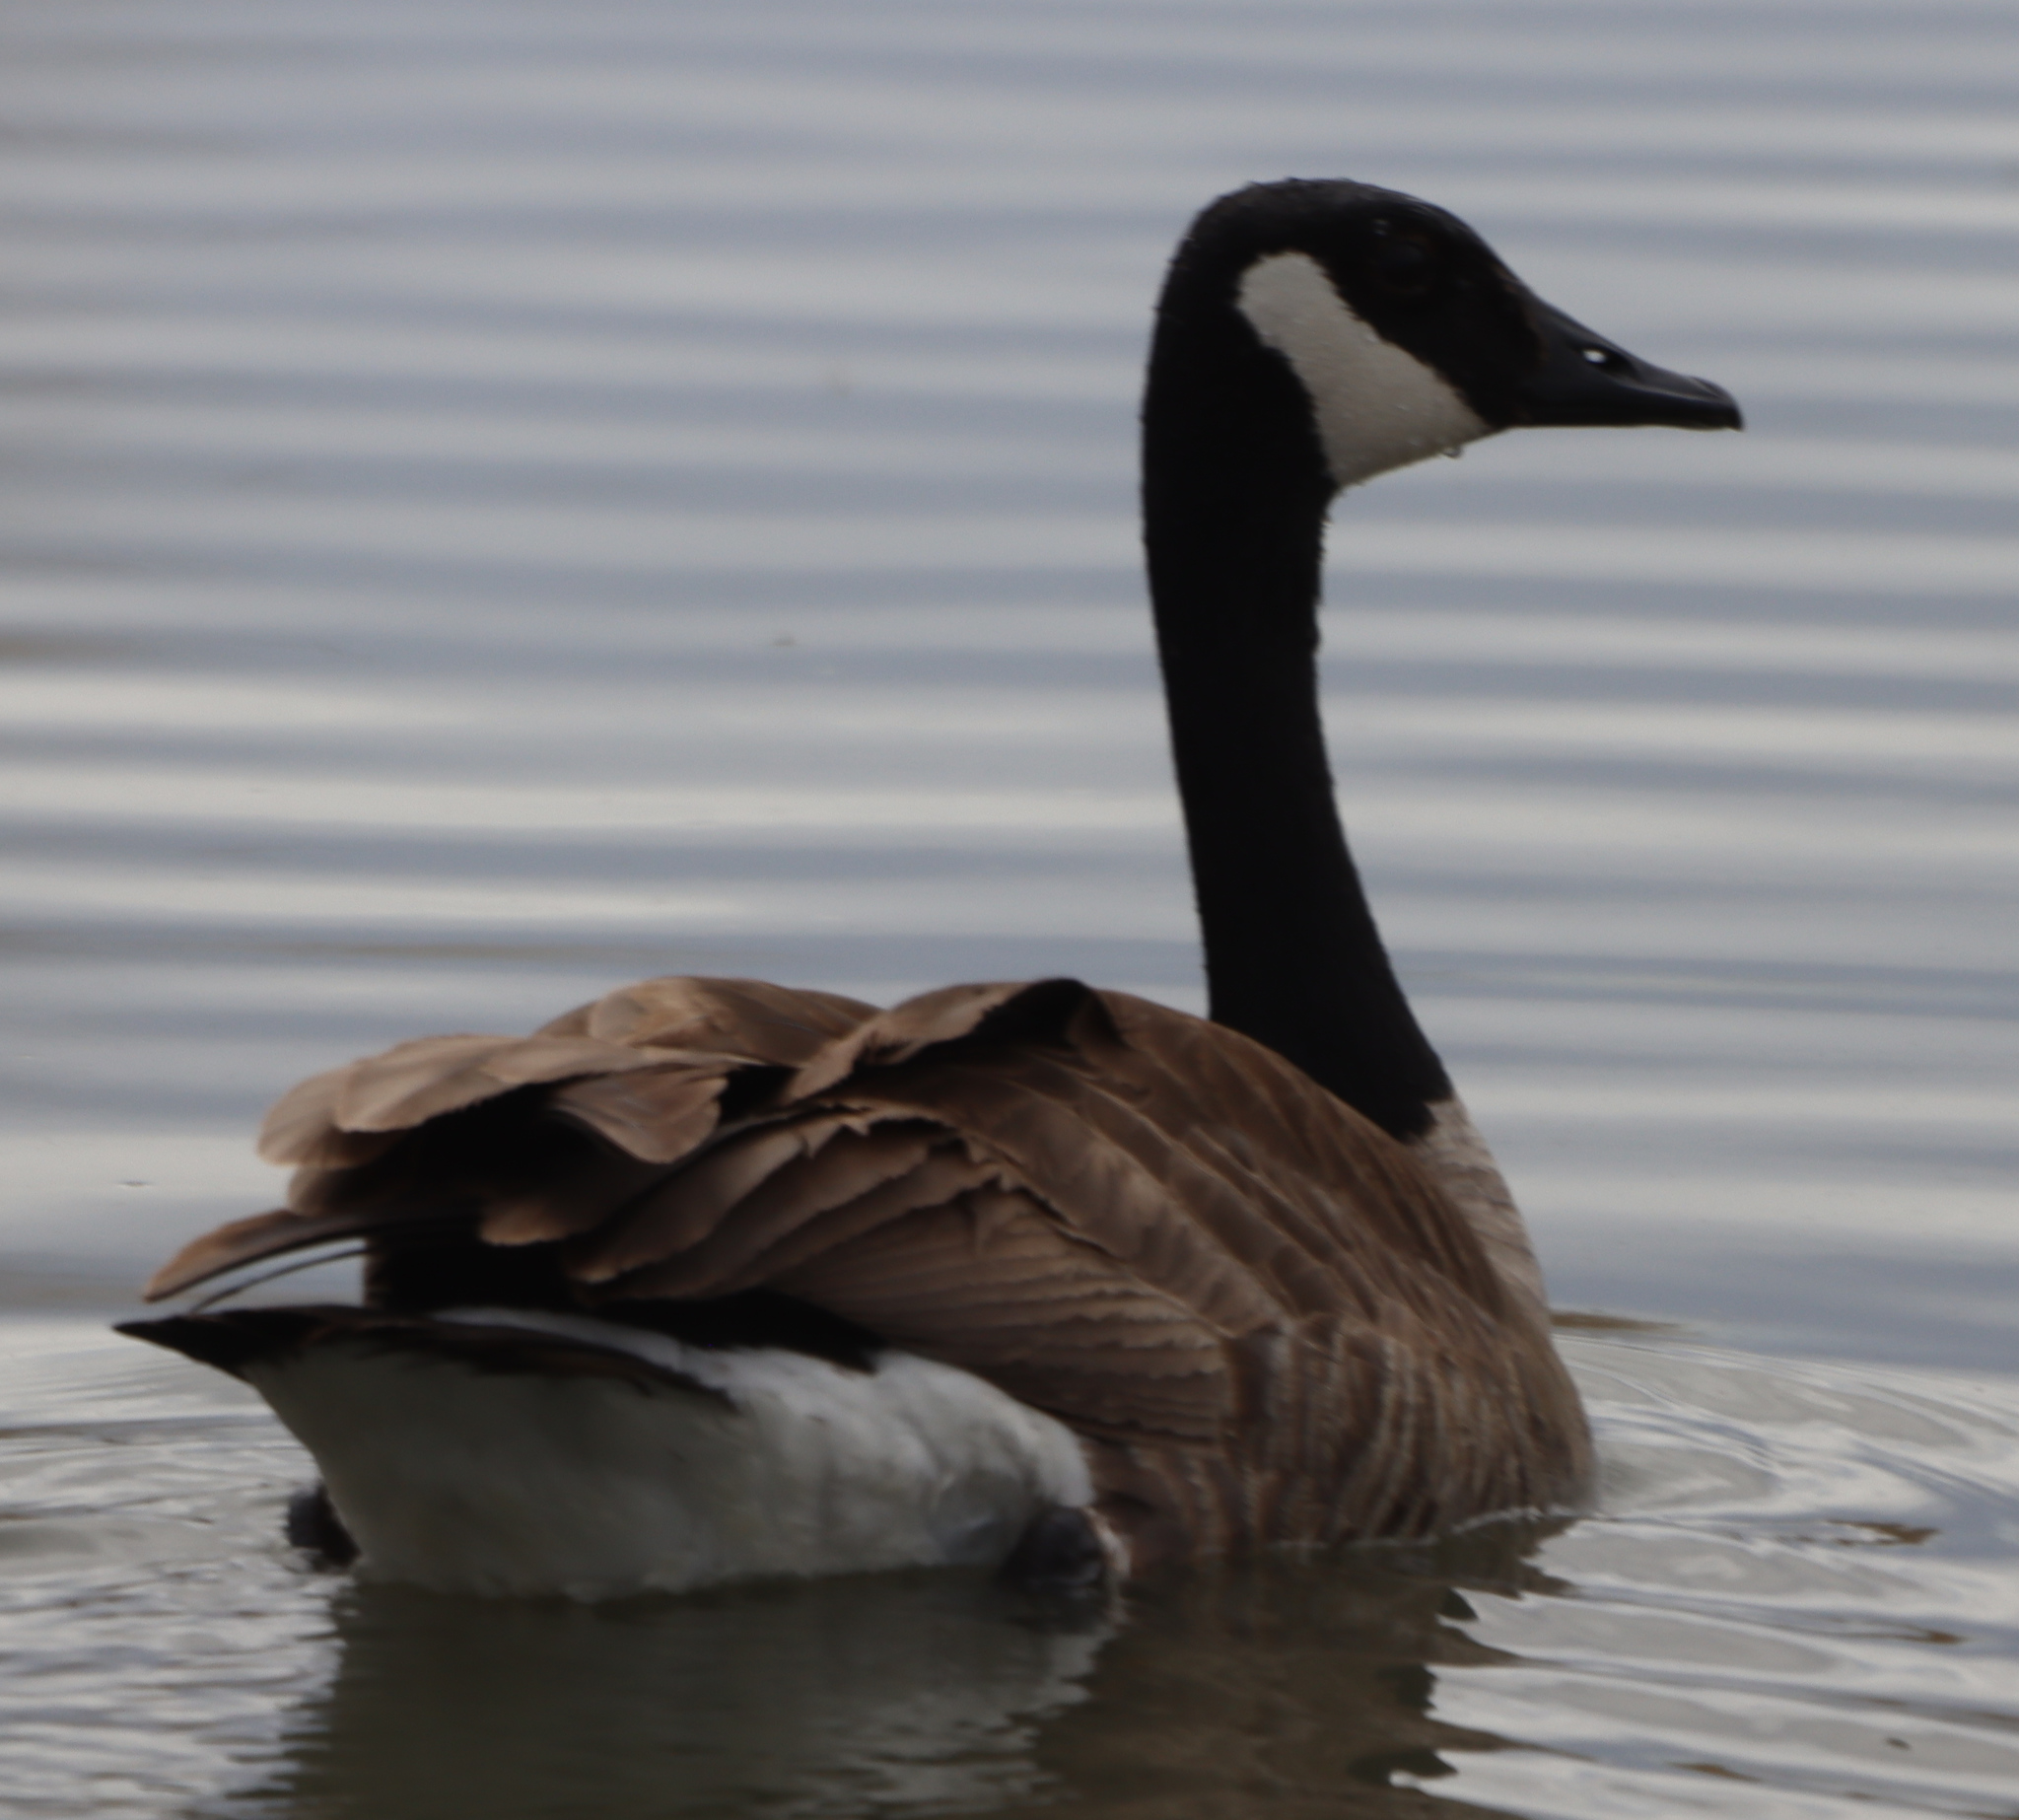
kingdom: Animalia
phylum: Chordata
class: Aves
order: Anseriformes
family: Anatidae
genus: Branta
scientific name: Branta canadensis
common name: Canada goose
